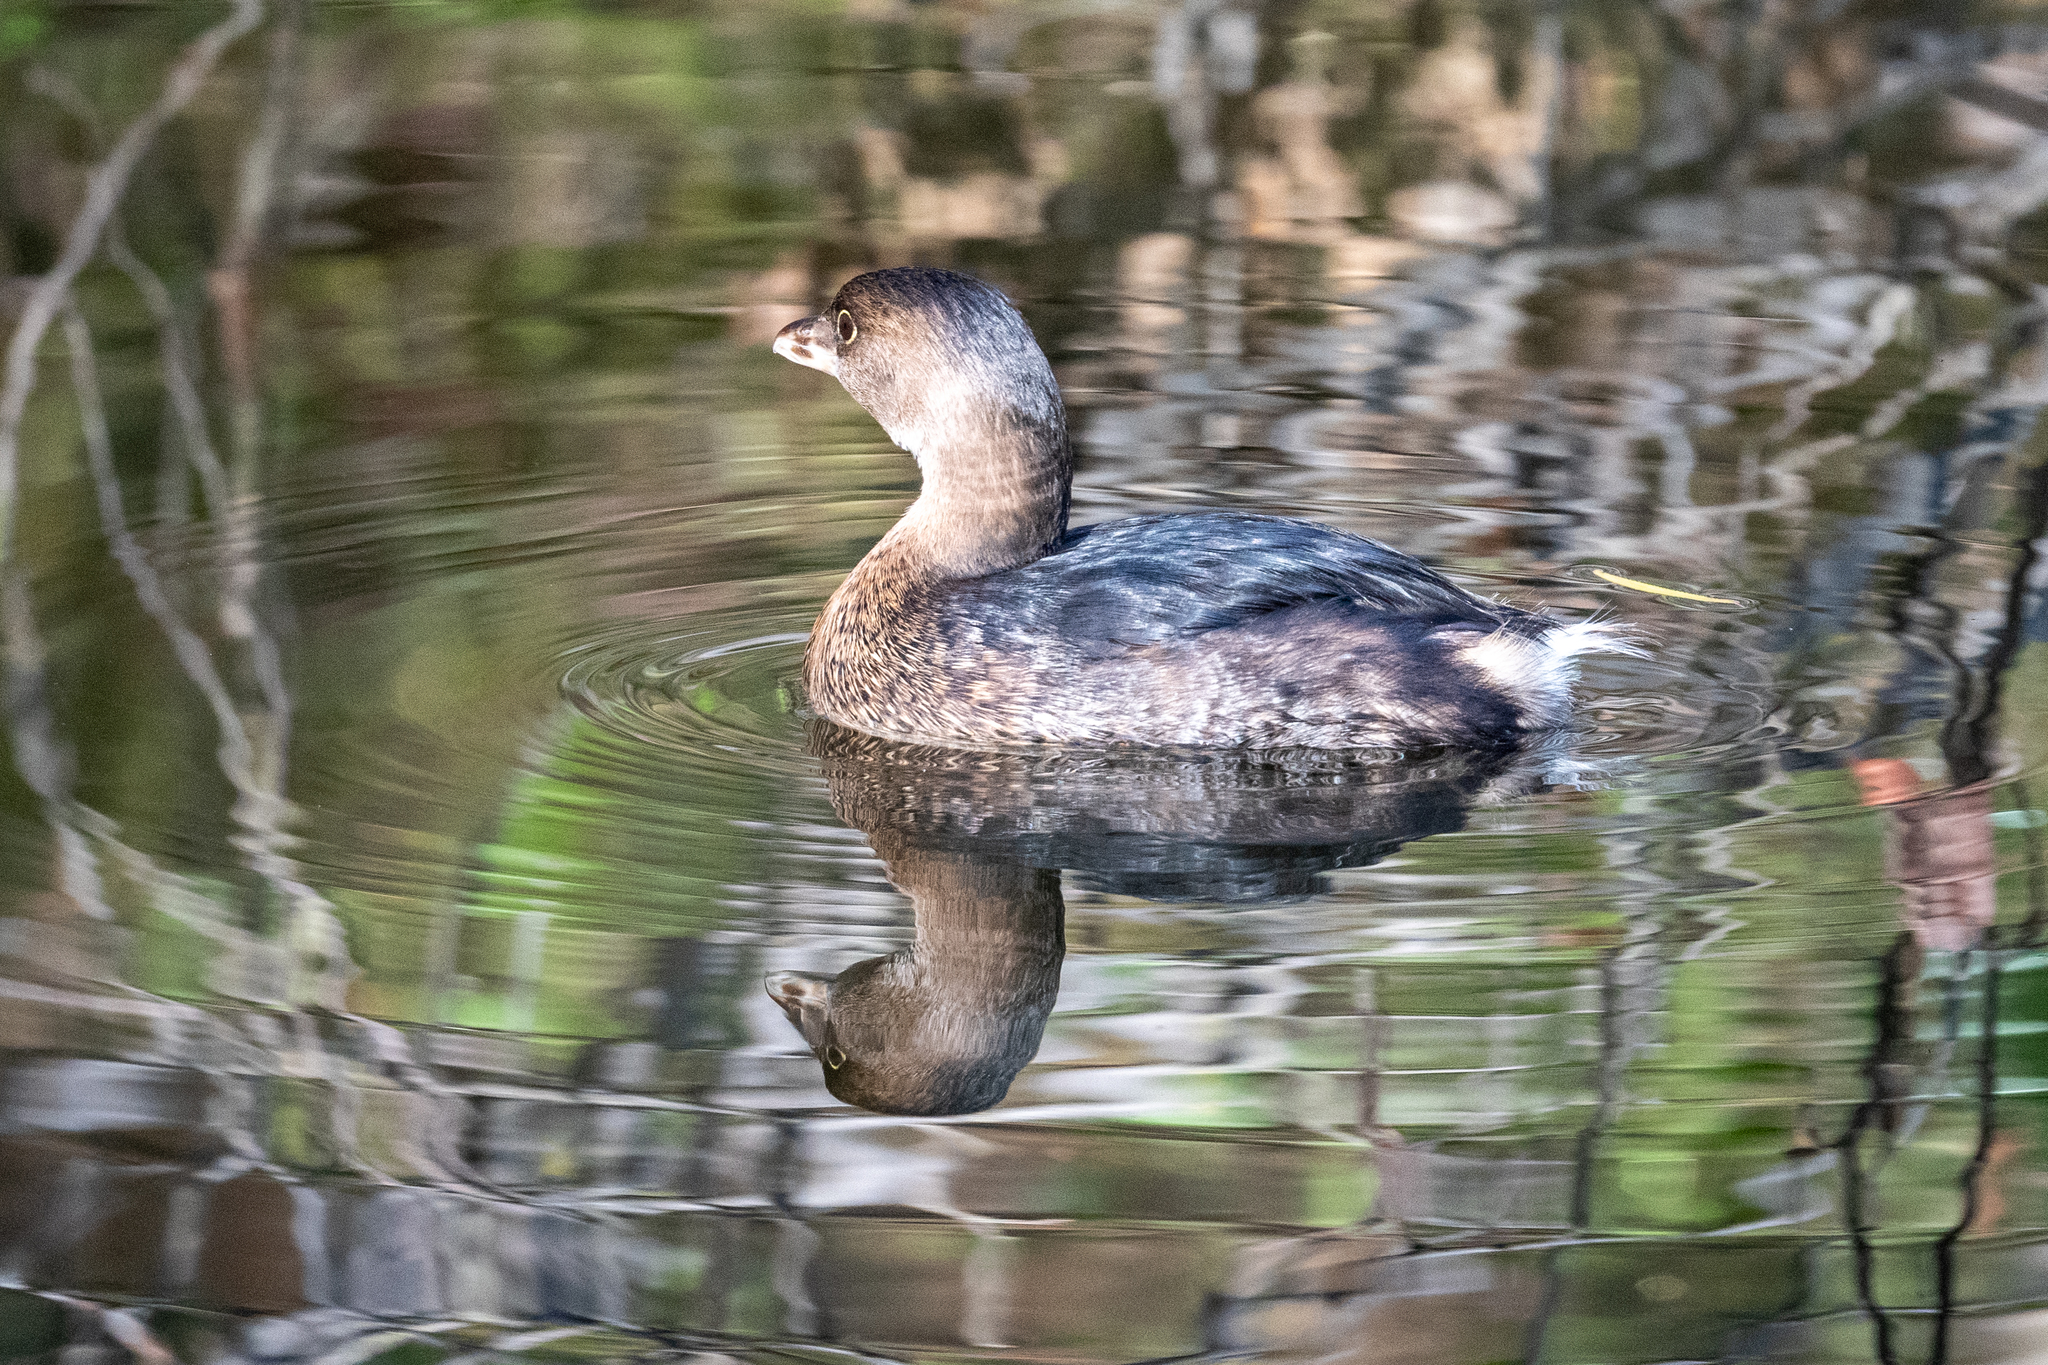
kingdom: Animalia
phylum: Chordata
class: Aves
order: Podicipediformes
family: Podicipedidae
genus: Podilymbus
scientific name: Podilymbus podiceps
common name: Pied-billed grebe
